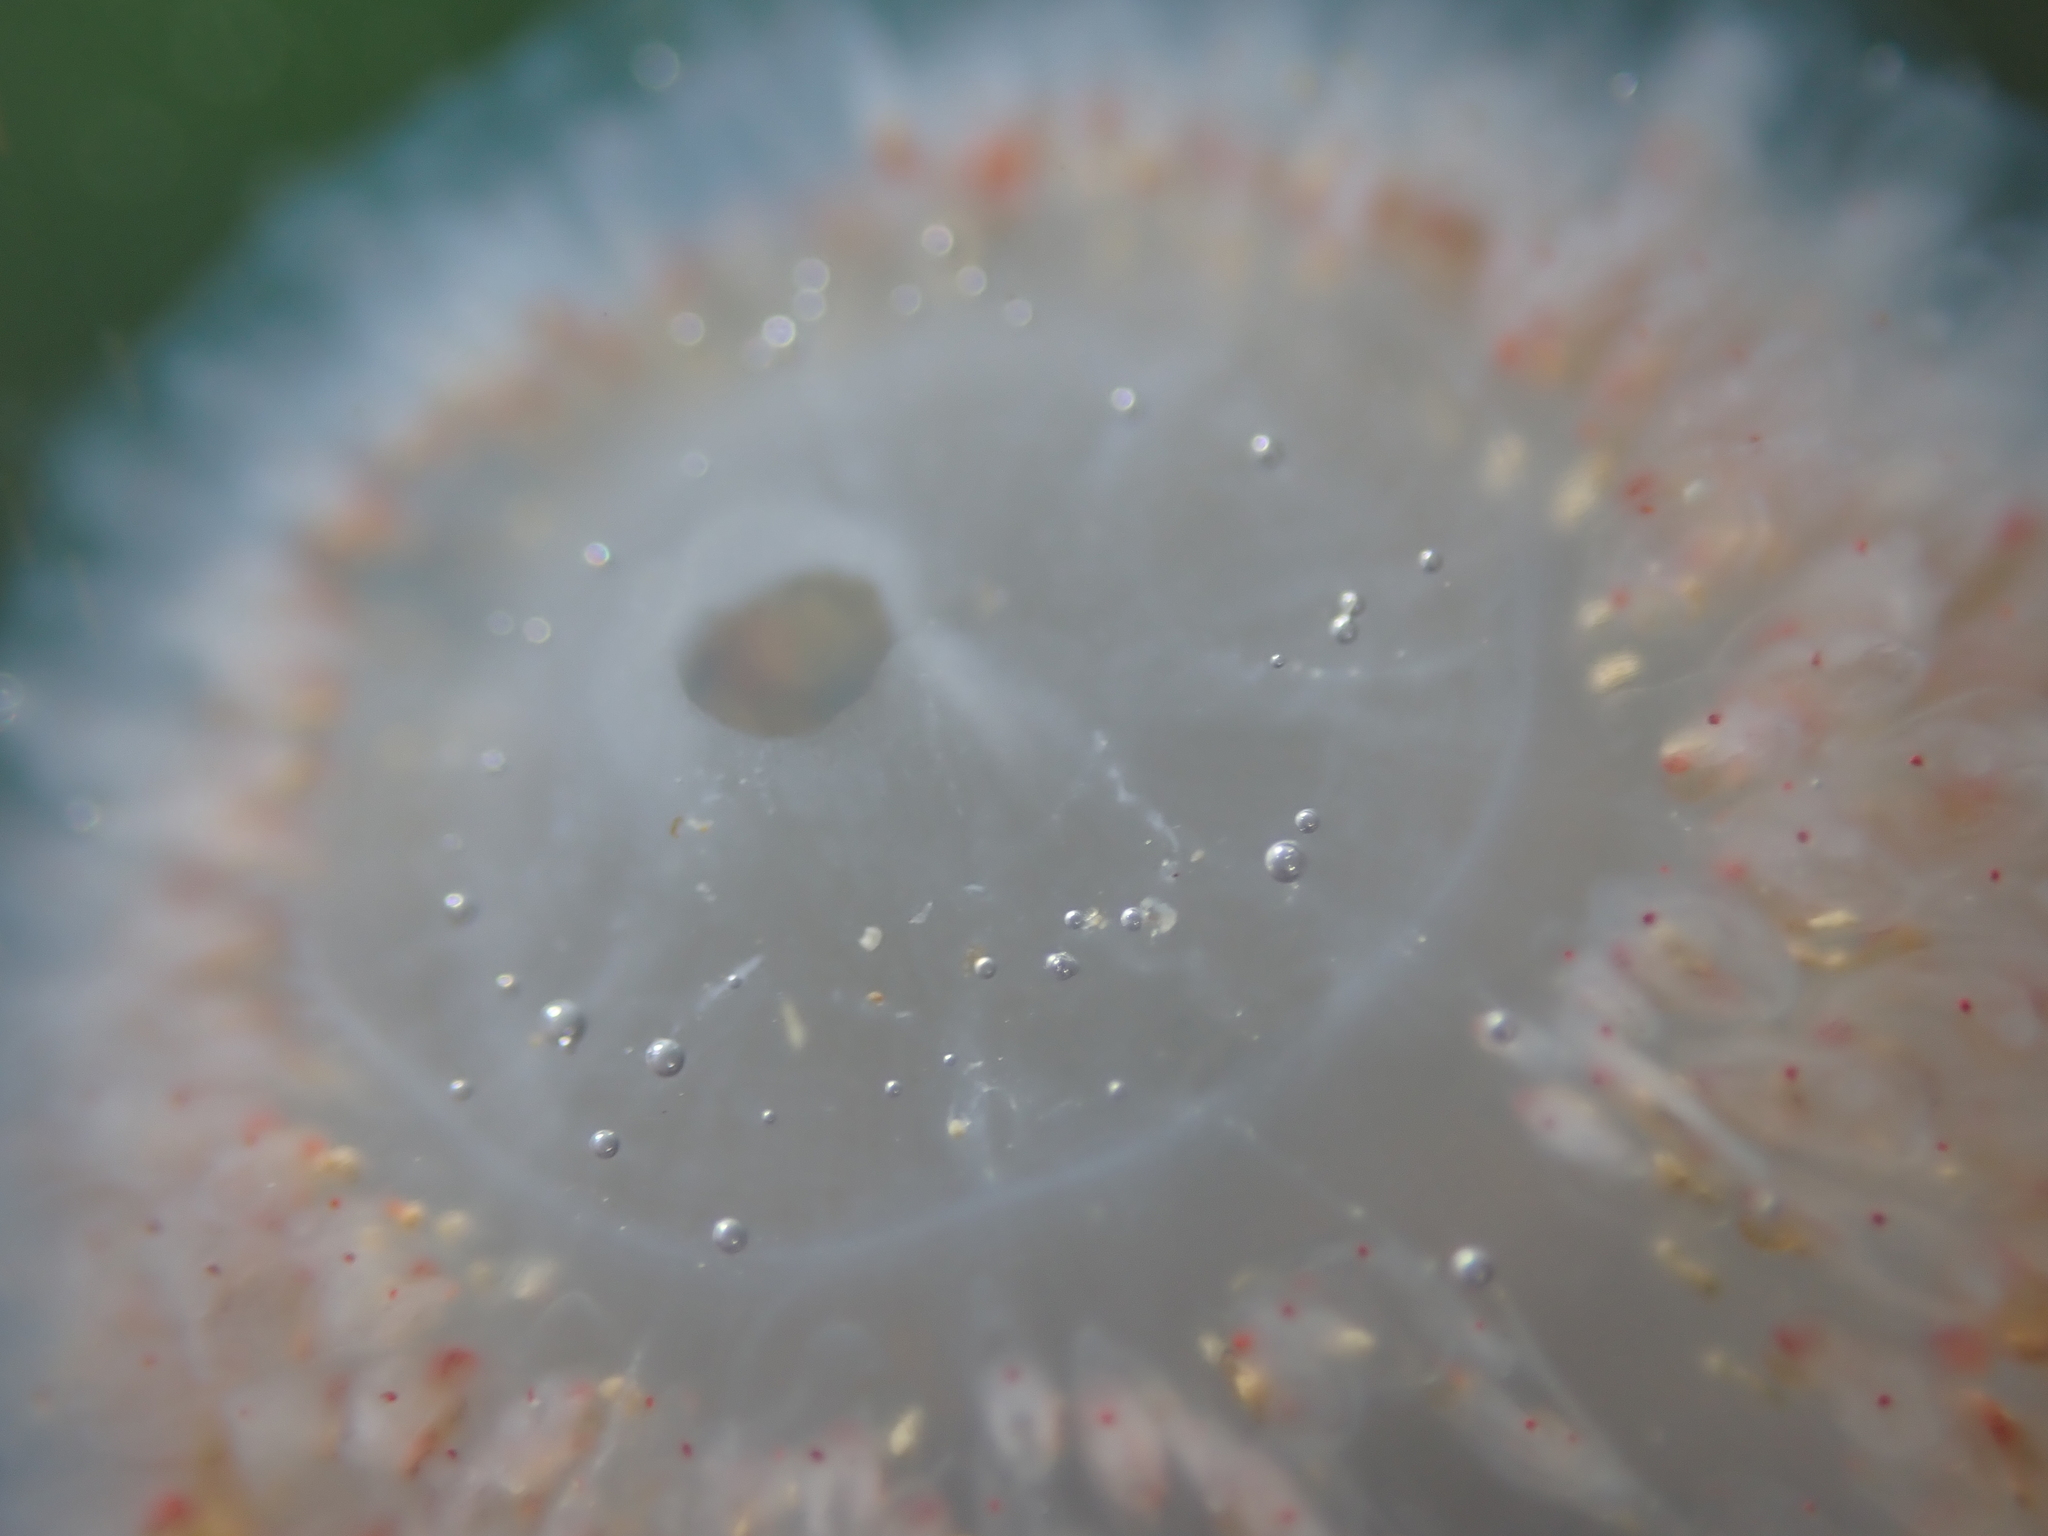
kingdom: Animalia
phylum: Chordata
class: Thaliacea
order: Pyrosomatida
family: Pyrosomatidae
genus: Pyrosoma
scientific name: Pyrosoma atlanticum
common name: Atlantic pyrosomes
